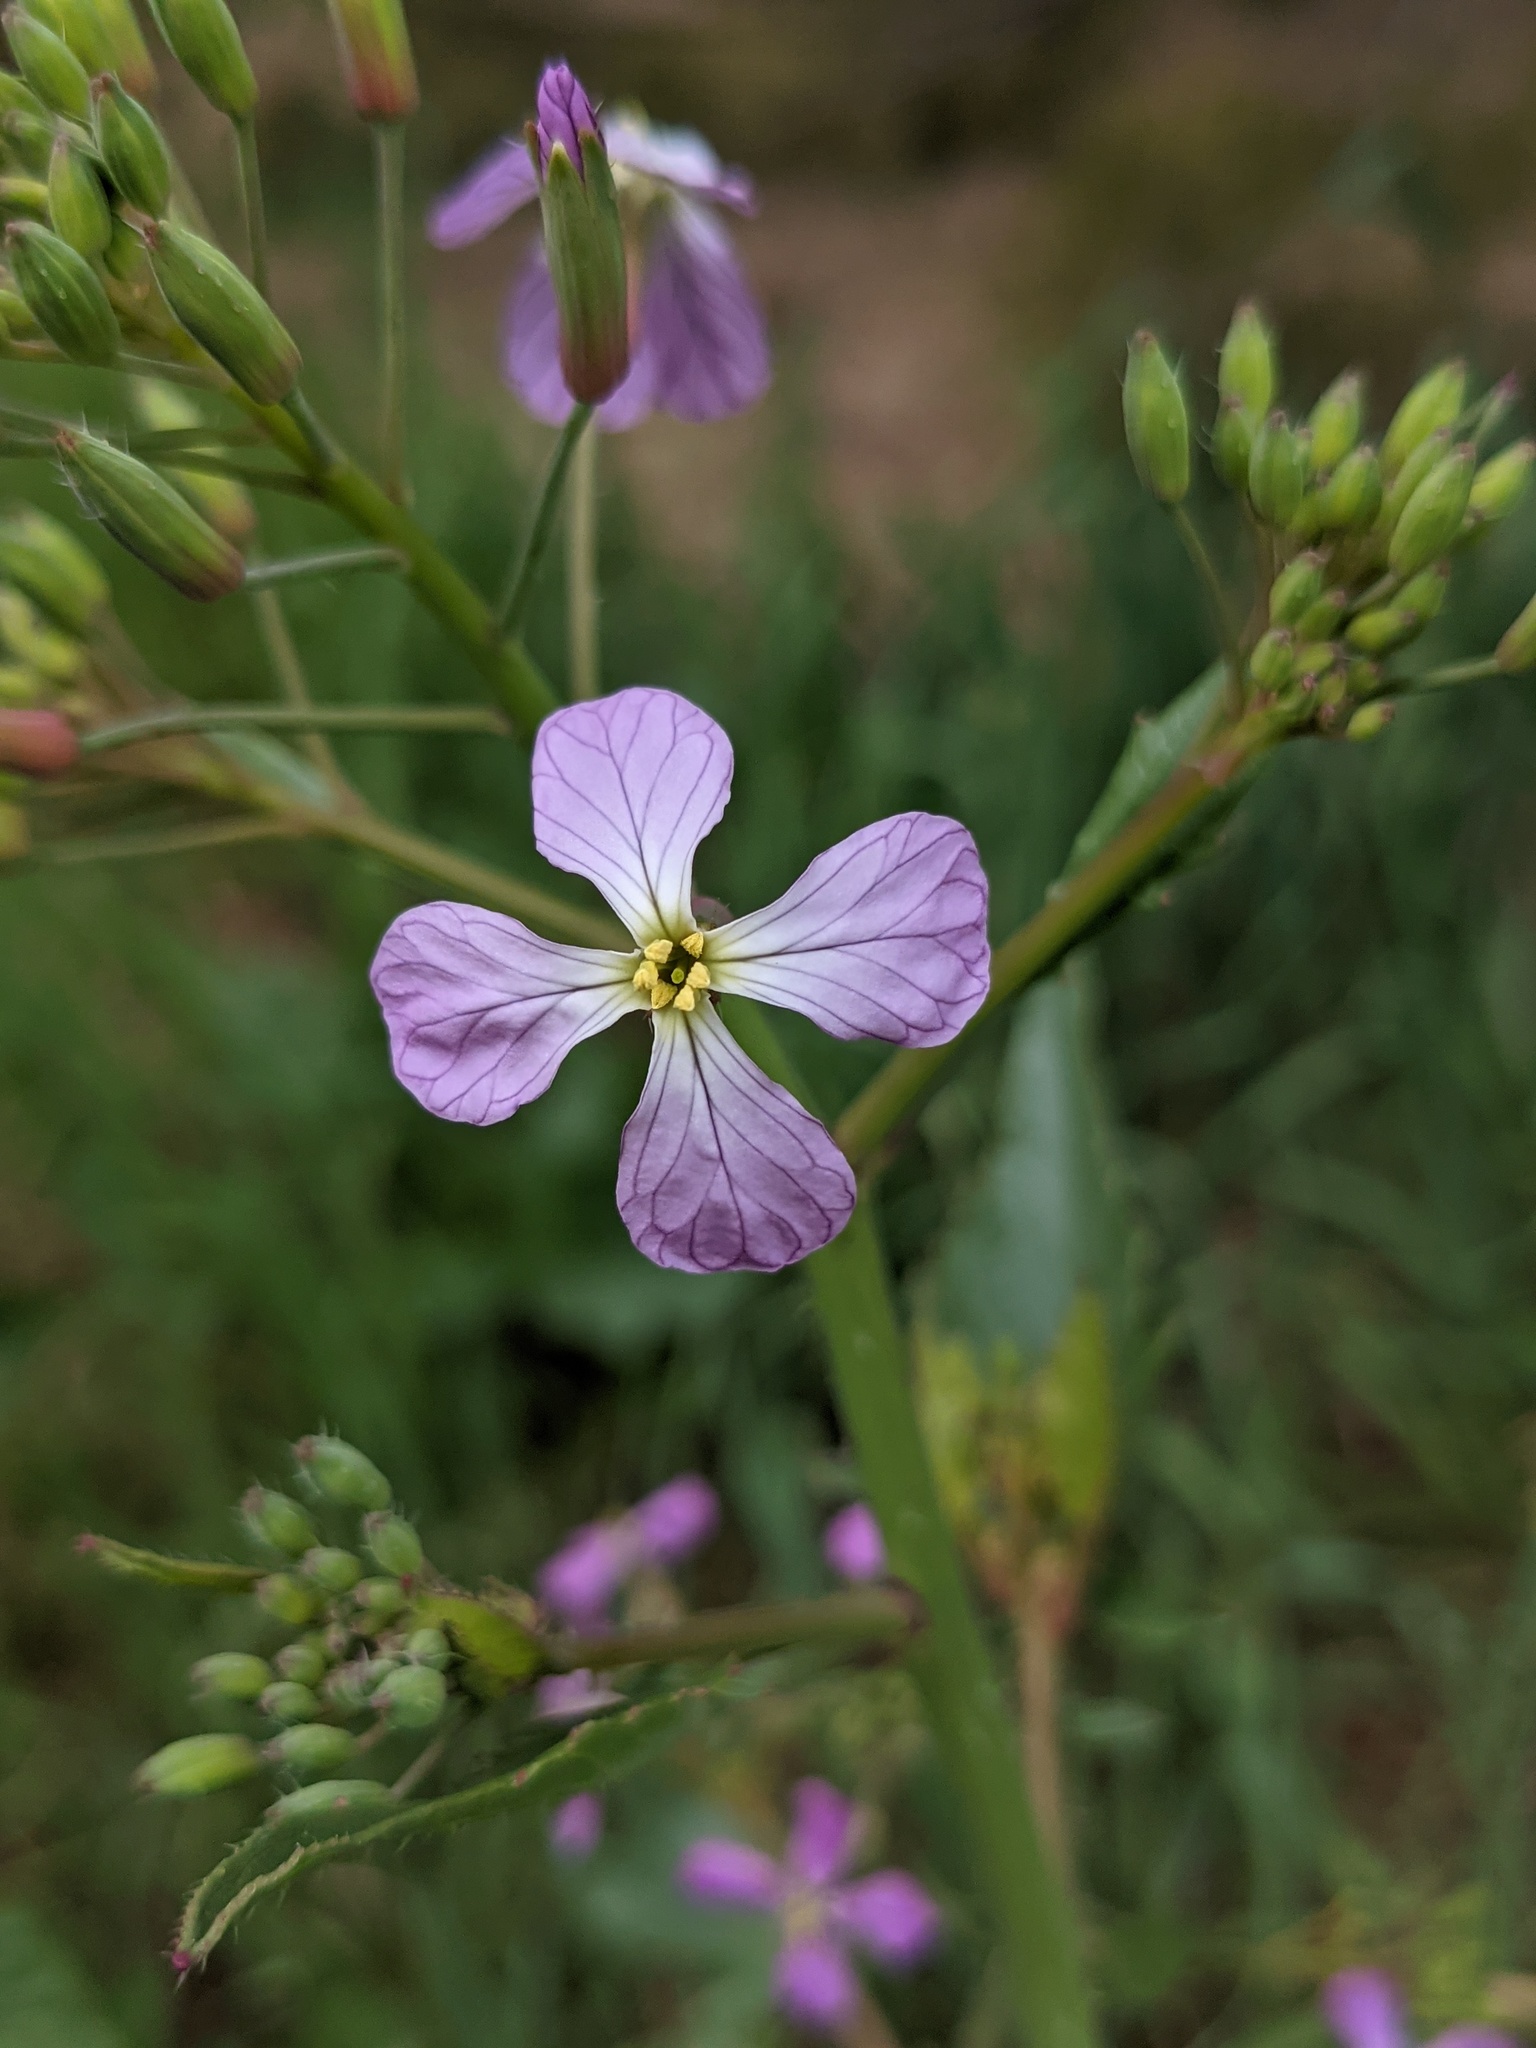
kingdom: Plantae
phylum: Tracheophyta
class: Magnoliopsida
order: Brassicales
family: Brassicaceae
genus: Raphanus
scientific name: Raphanus sativus
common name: Cultivated radish
